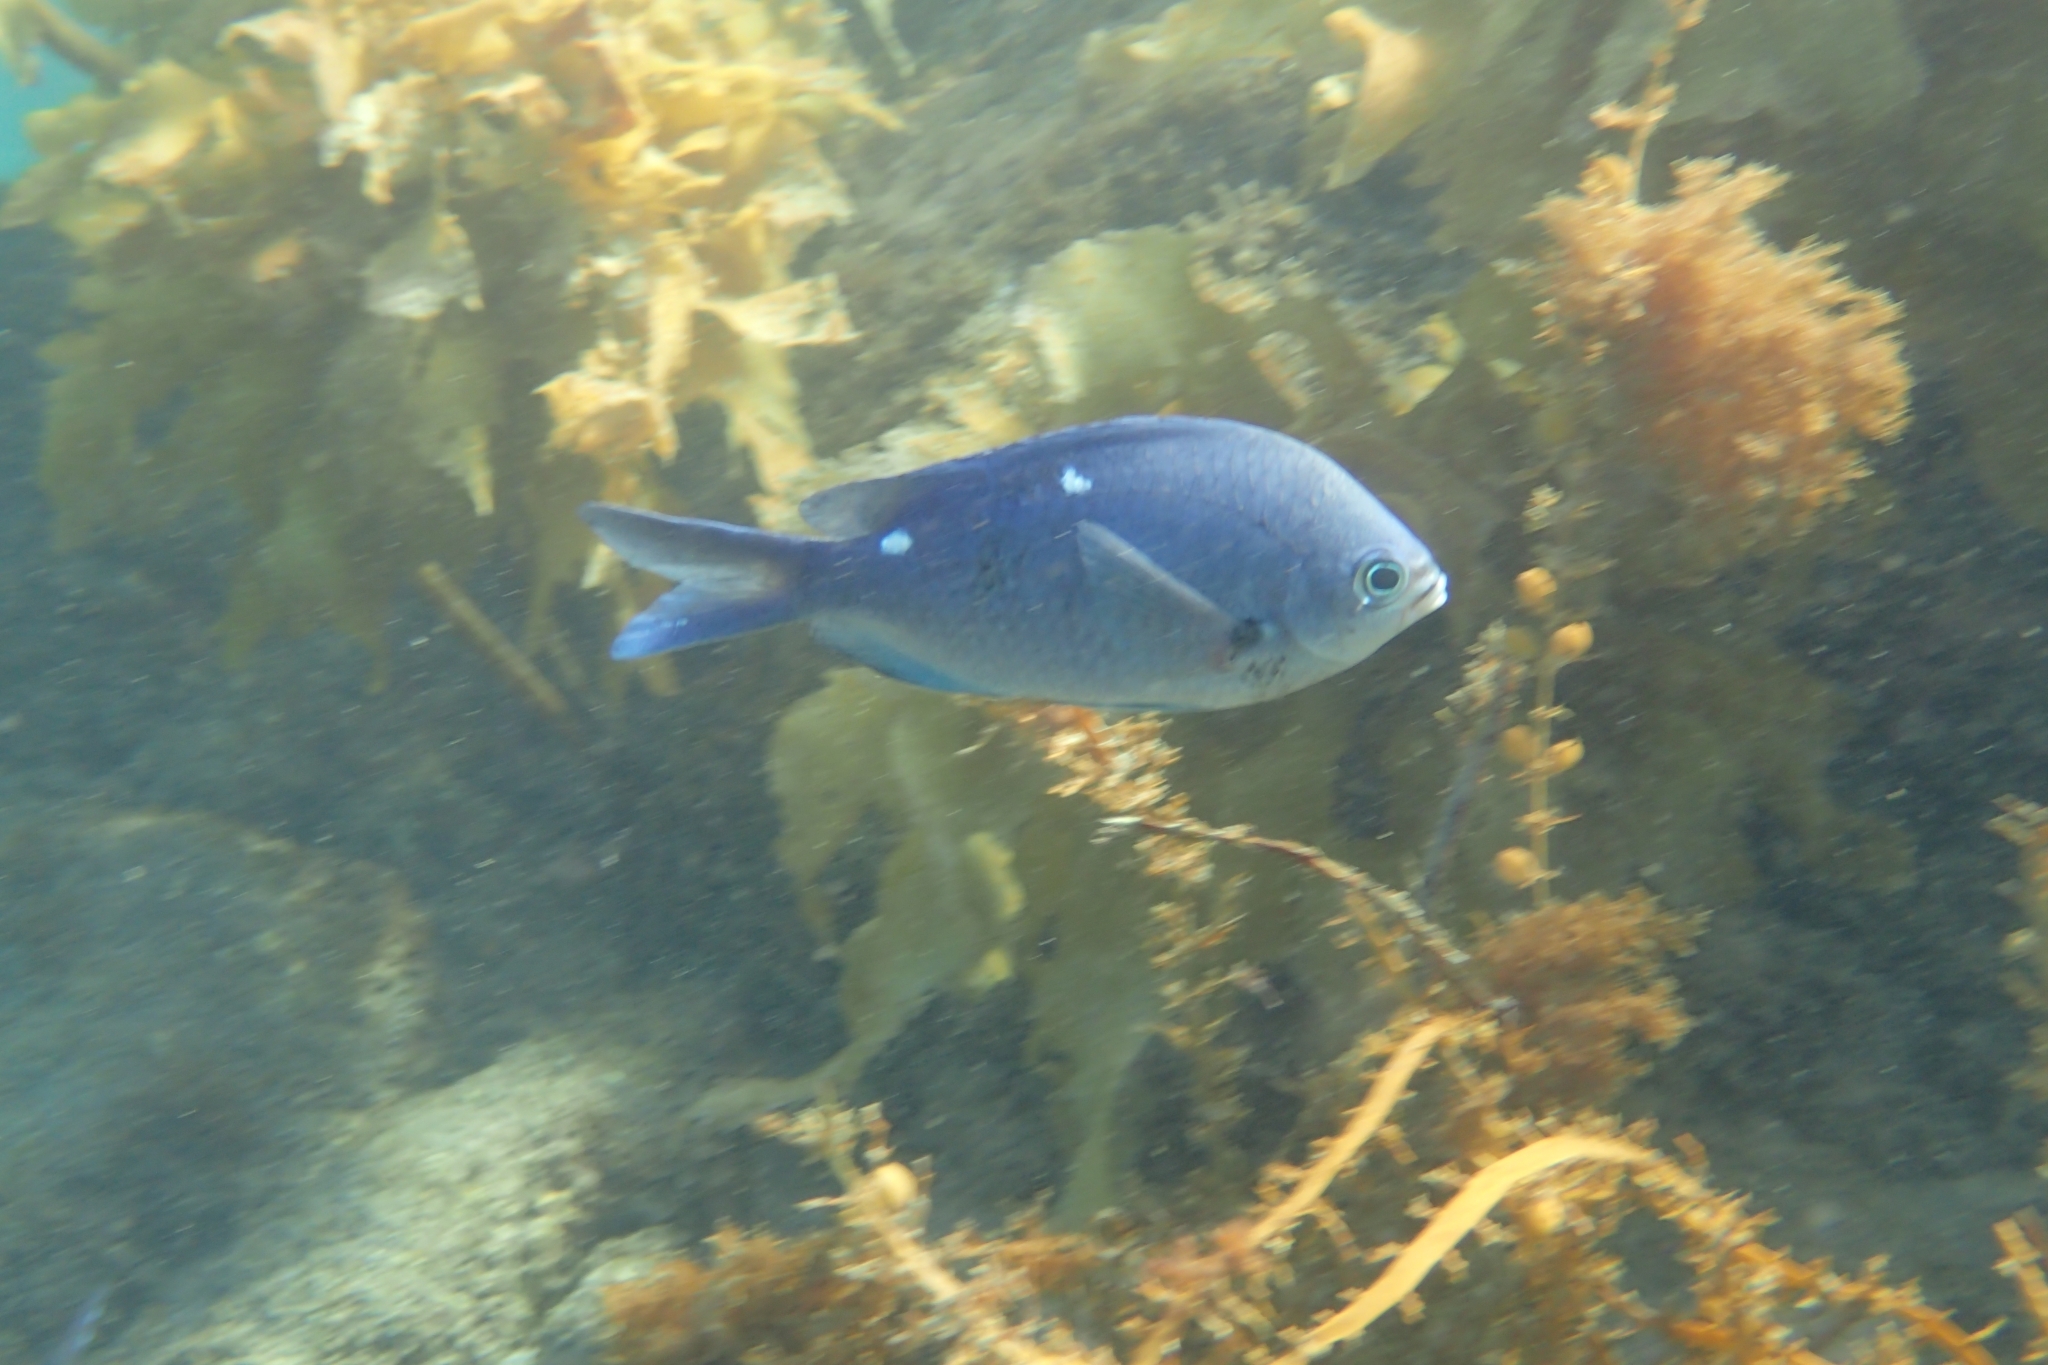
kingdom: Animalia
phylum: Chordata
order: Perciformes
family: Pomacentridae
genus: Chromis
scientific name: Chromis dispilus
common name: Demoiselle
